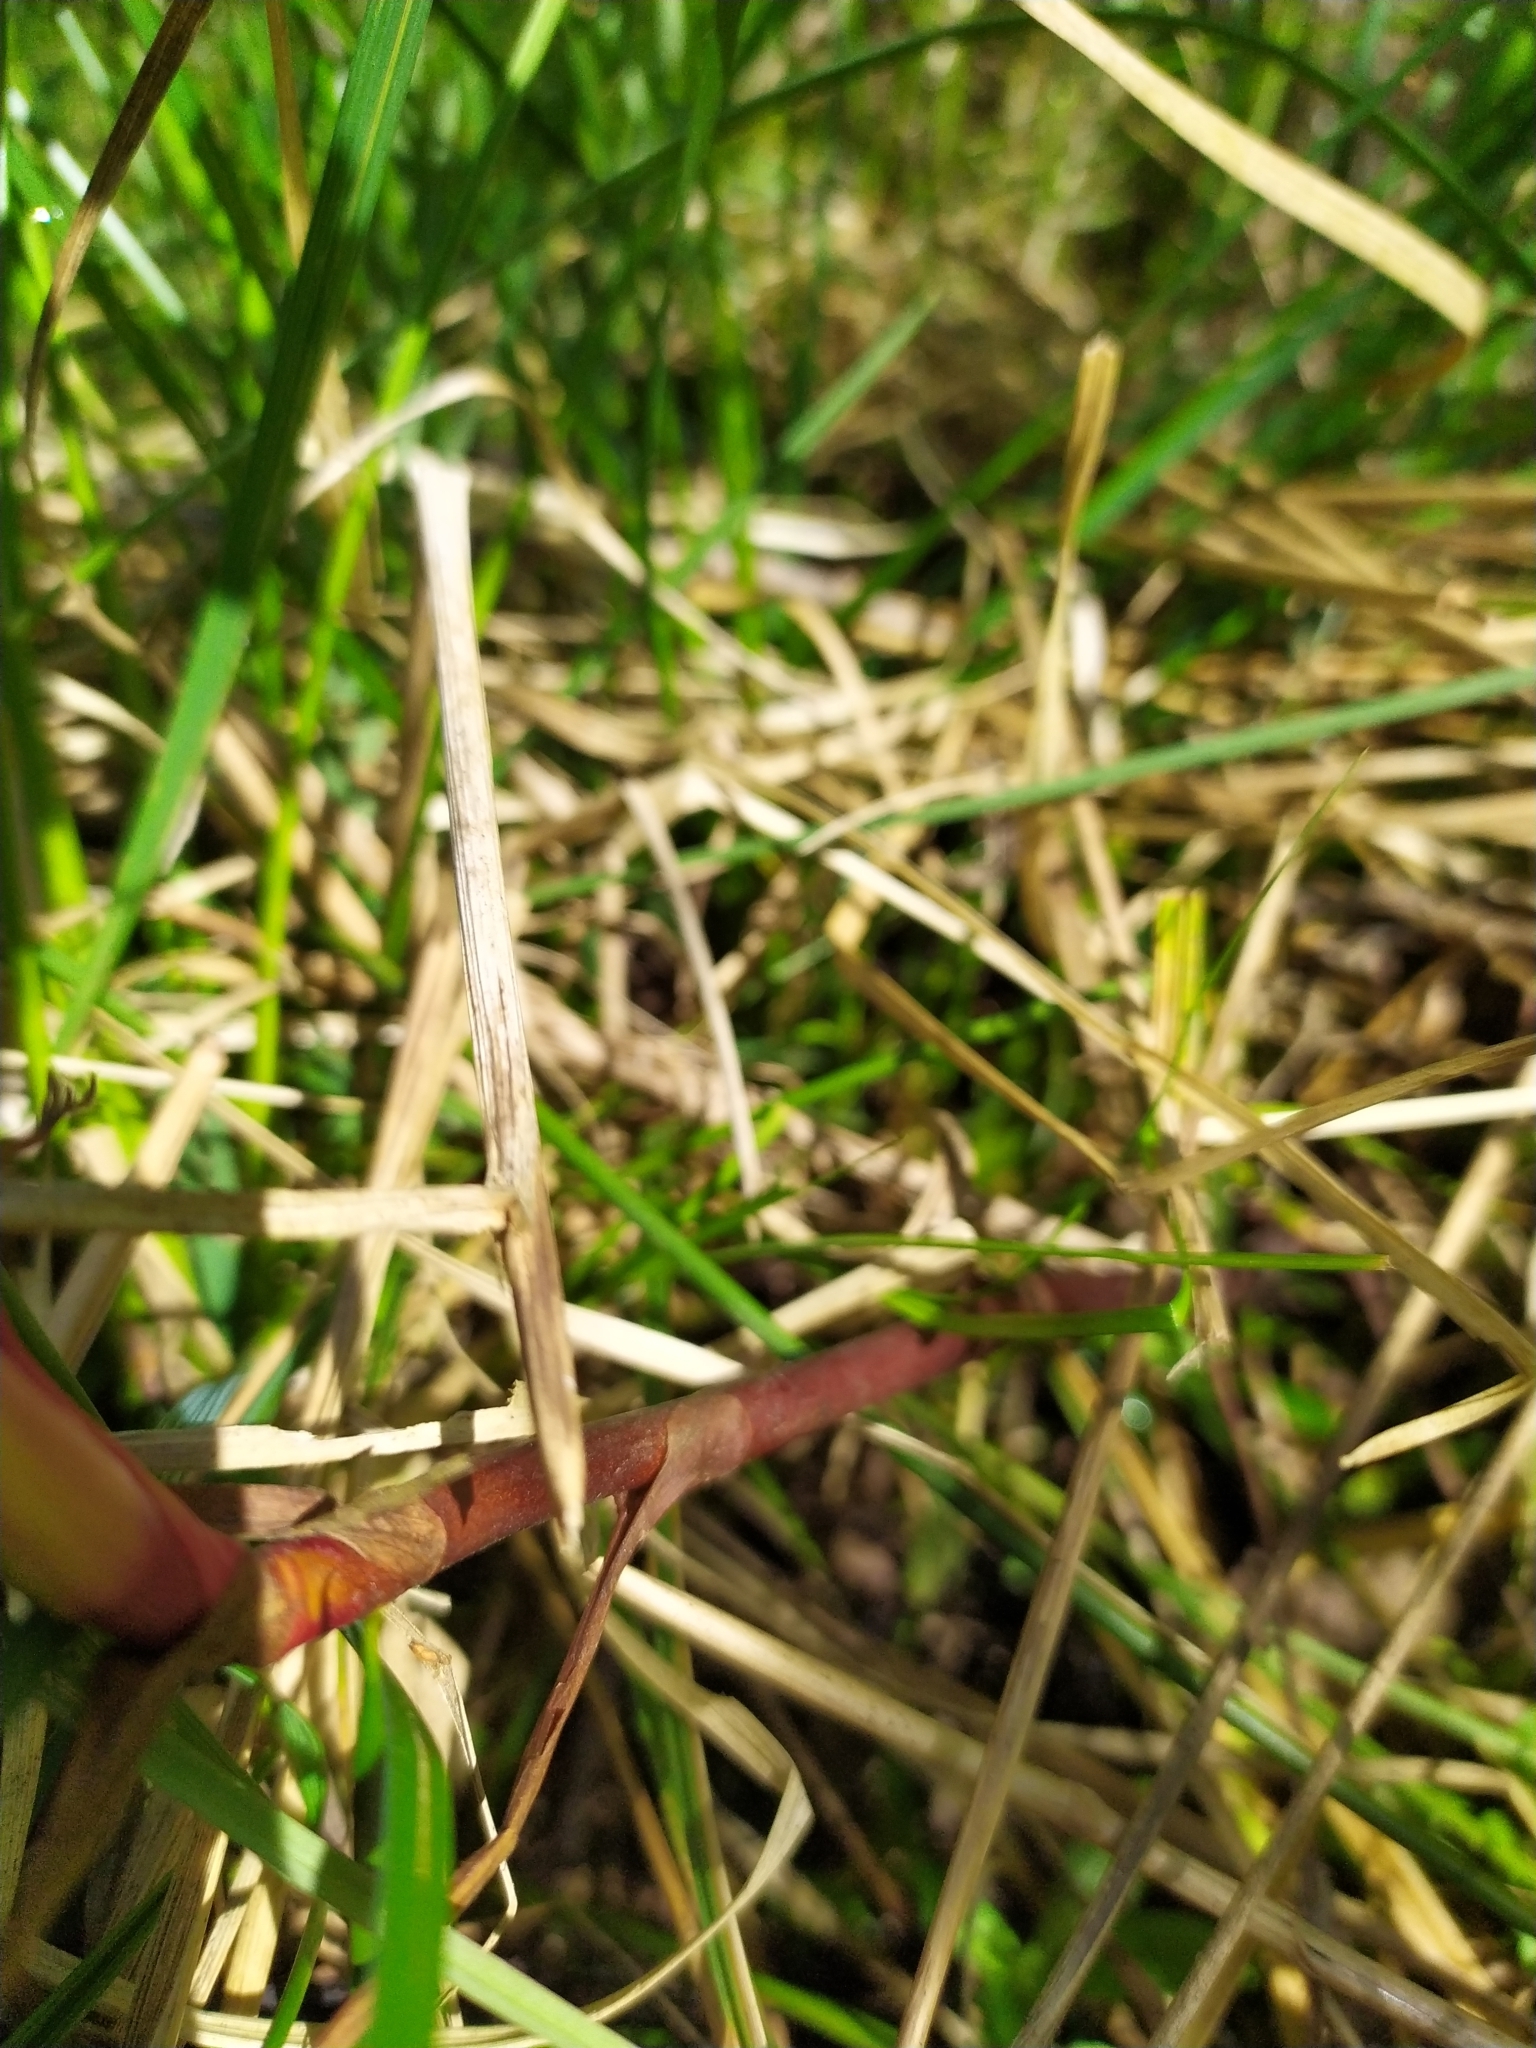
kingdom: Plantae
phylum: Tracheophyta
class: Magnoliopsida
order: Rosales
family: Rosaceae
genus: Comarum
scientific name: Comarum palustre
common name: Marsh cinquefoil
